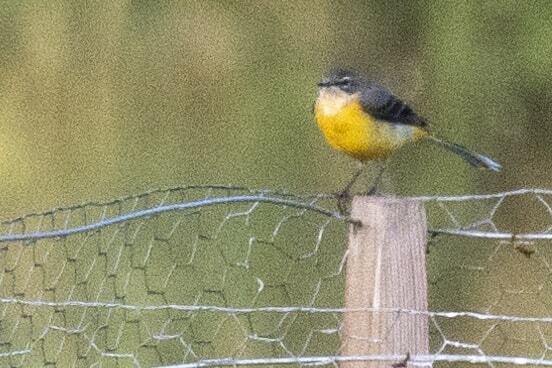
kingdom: Animalia
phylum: Chordata
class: Aves
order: Passeriformes
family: Motacillidae
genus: Motacilla
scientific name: Motacilla cinerea
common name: Grey wagtail
